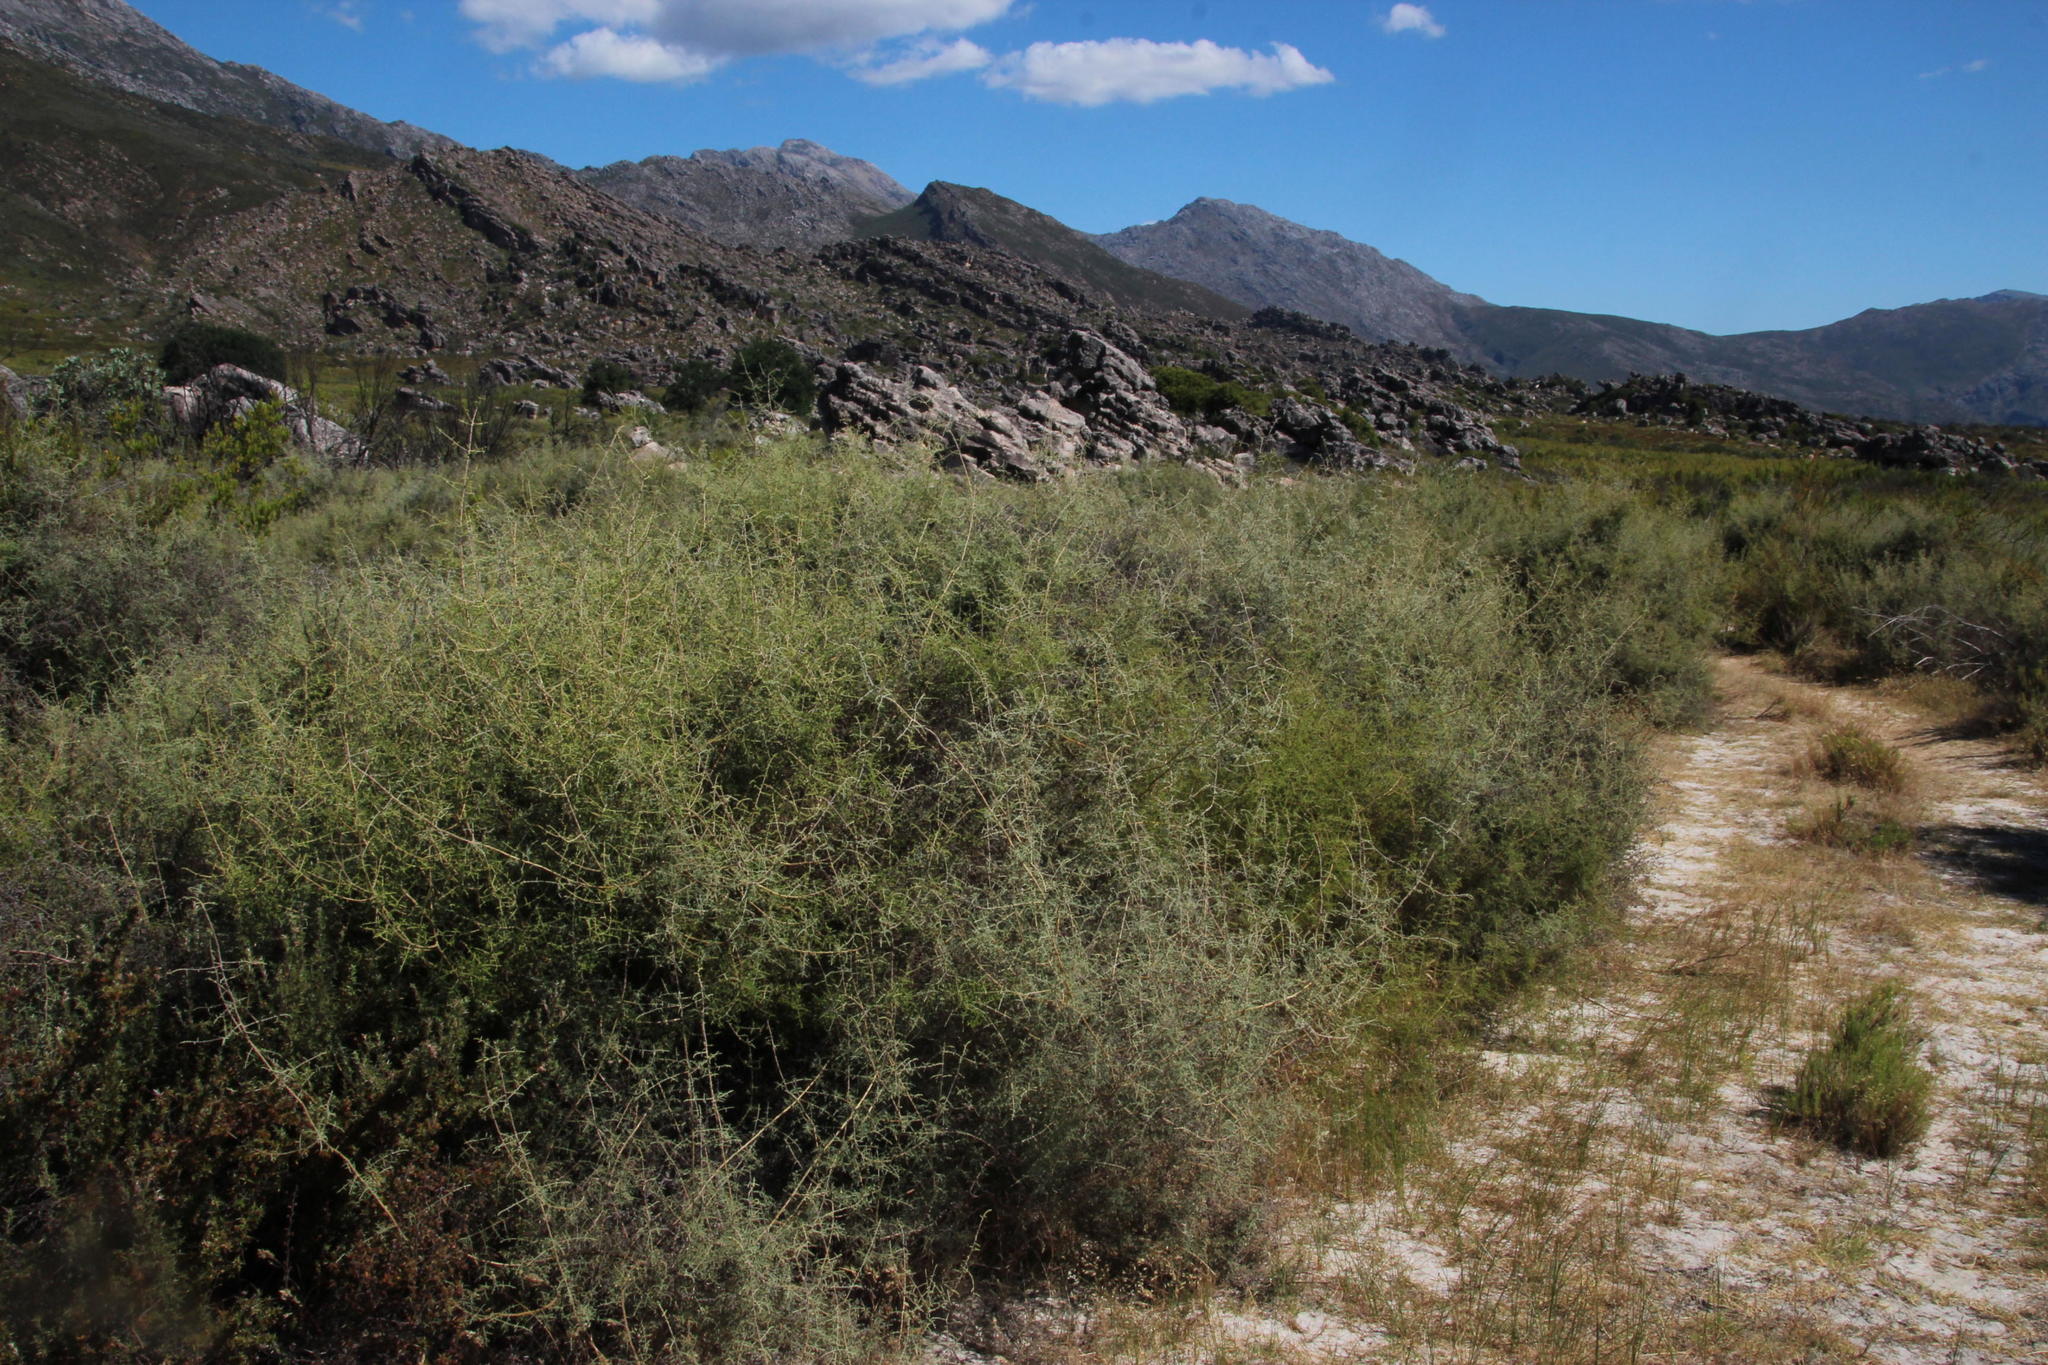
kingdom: Plantae
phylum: Tracheophyta
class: Magnoliopsida
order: Asterales
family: Asteraceae
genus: Seriphium
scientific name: Seriphium plumosum
